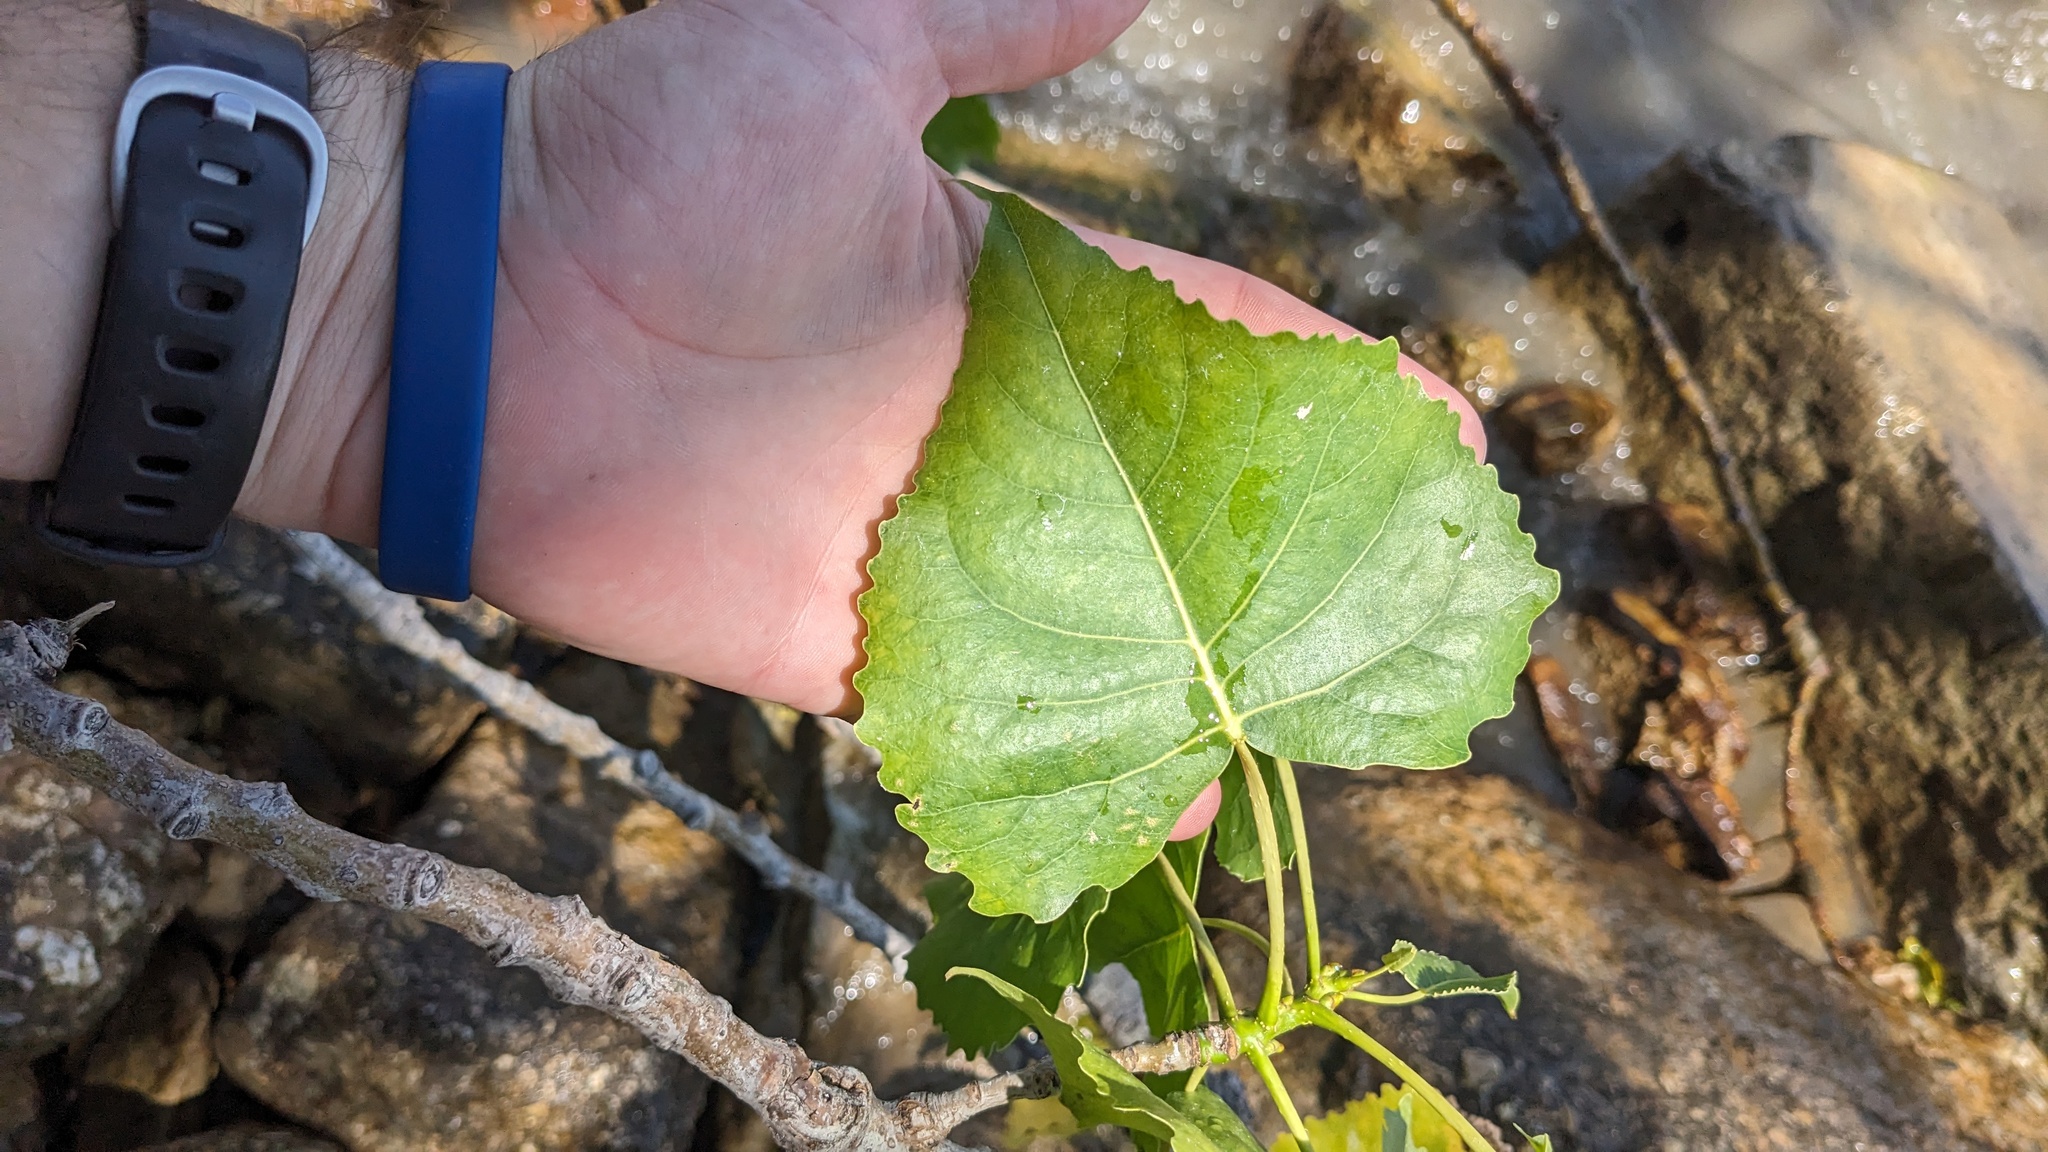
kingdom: Plantae
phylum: Tracheophyta
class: Magnoliopsida
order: Malpighiales
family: Salicaceae
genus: Populus
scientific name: Populus deltoides
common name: Eastern cottonwood
